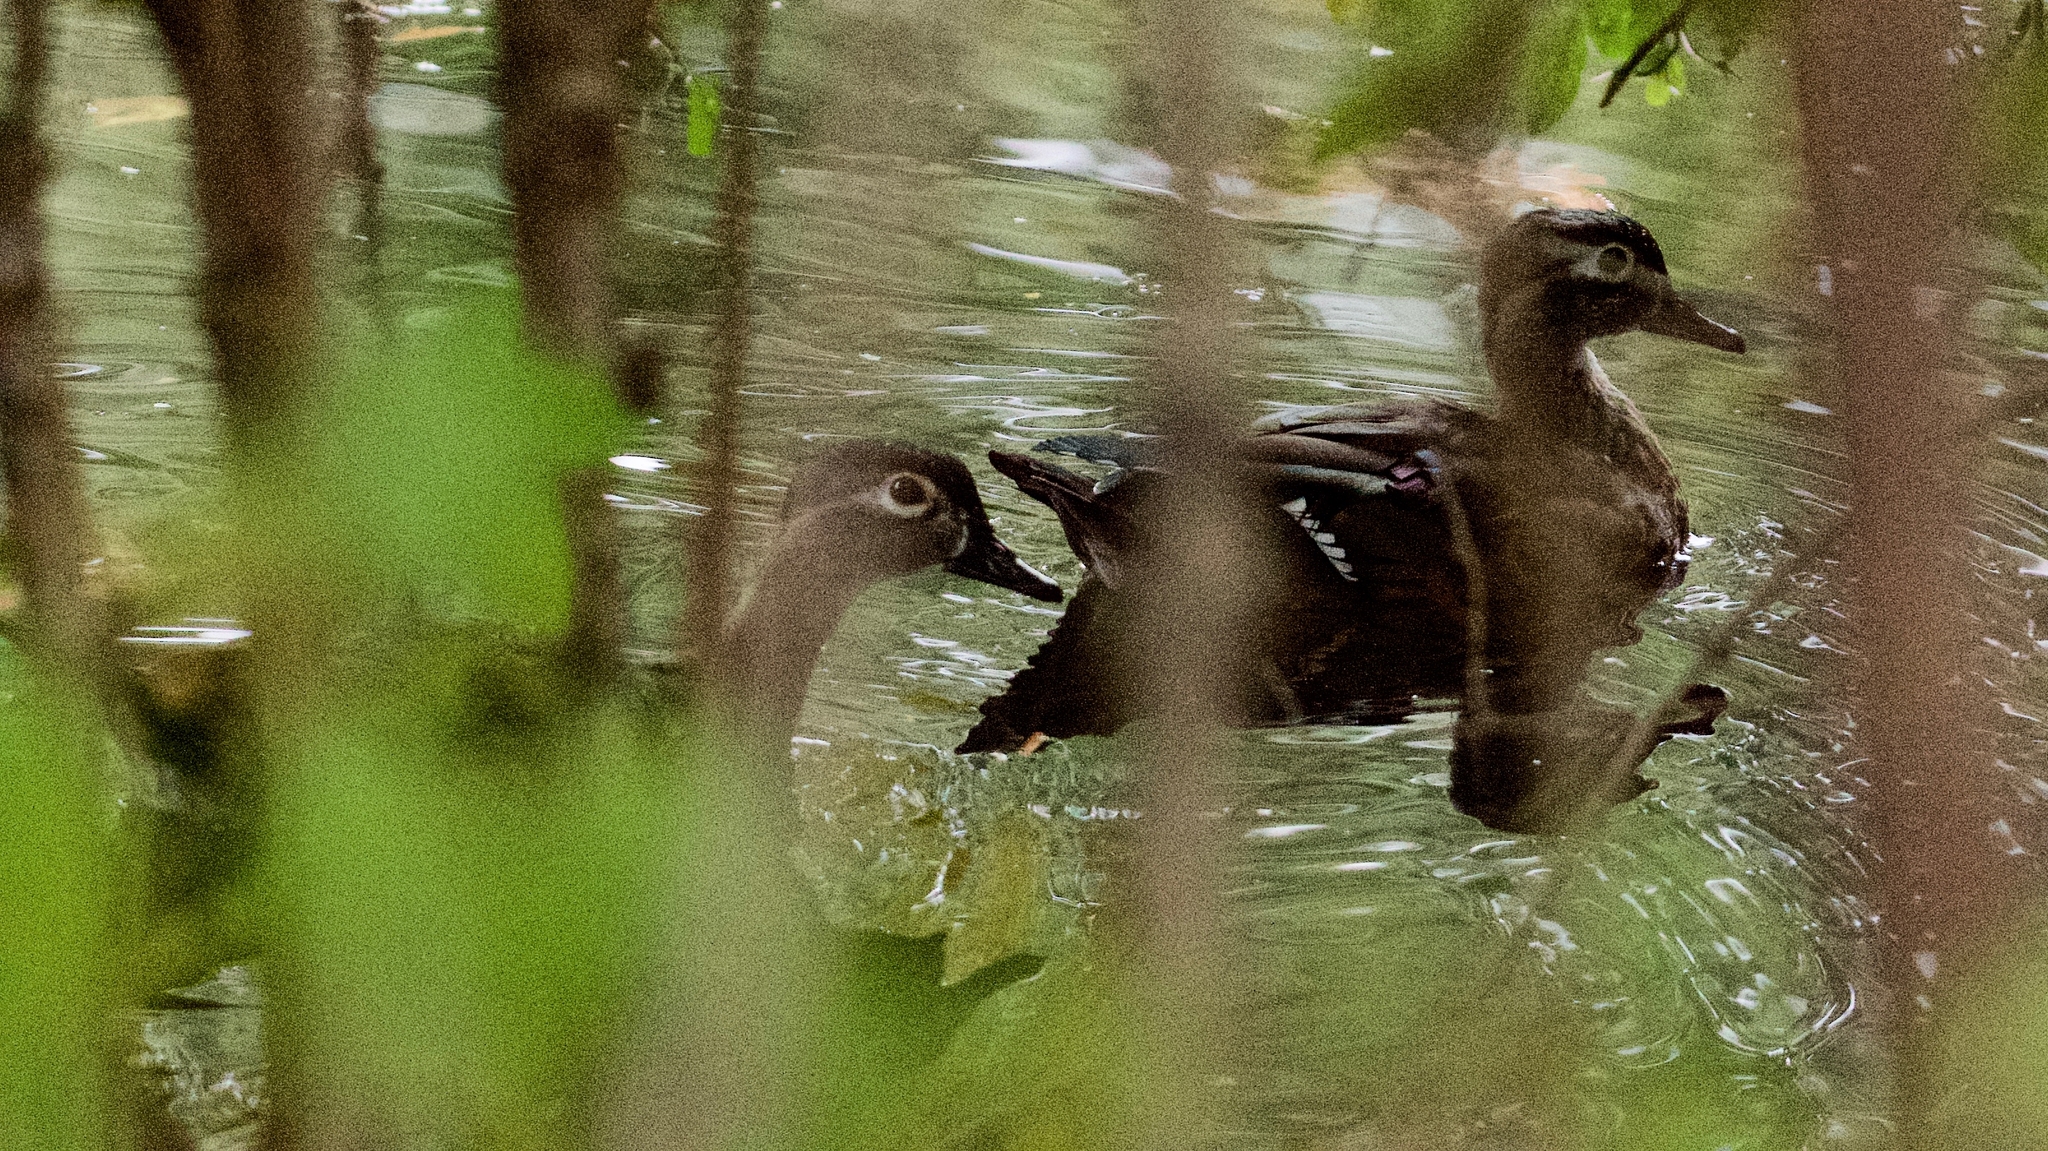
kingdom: Animalia
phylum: Chordata
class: Aves
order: Anseriformes
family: Anatidae
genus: Aix
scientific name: Aix sponsa
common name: Wood duck
